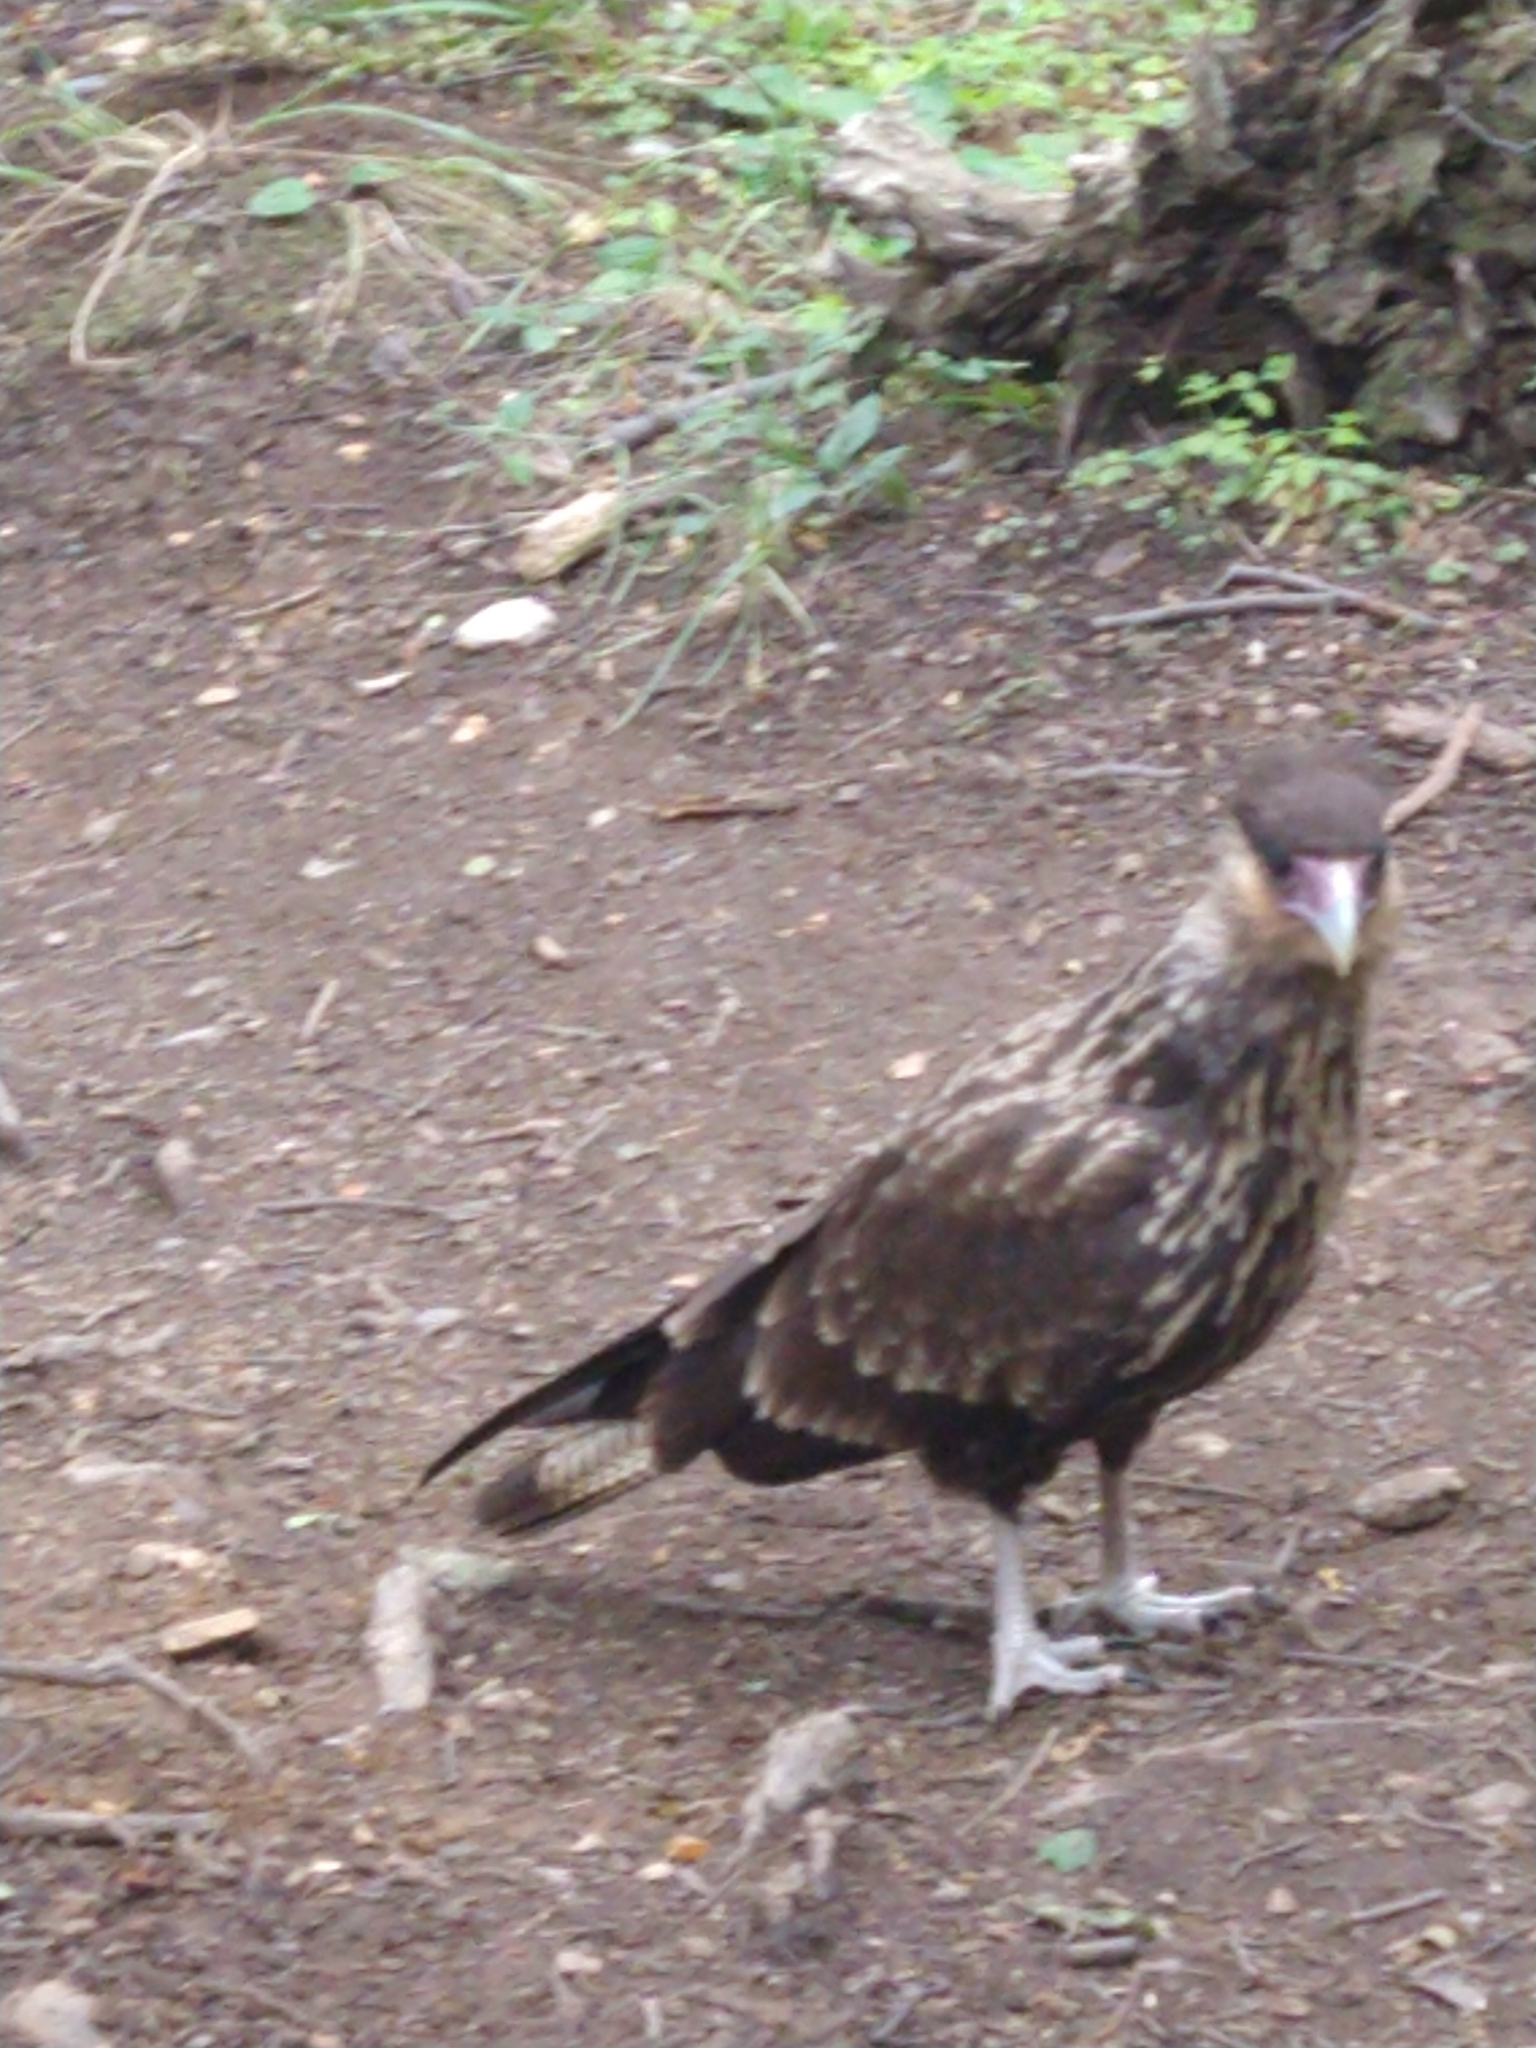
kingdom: Animalia
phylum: Chordata
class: Aves
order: Falconiformes
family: Falconidae
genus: Caracara
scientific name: Caracara plancus
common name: Southern caracara
